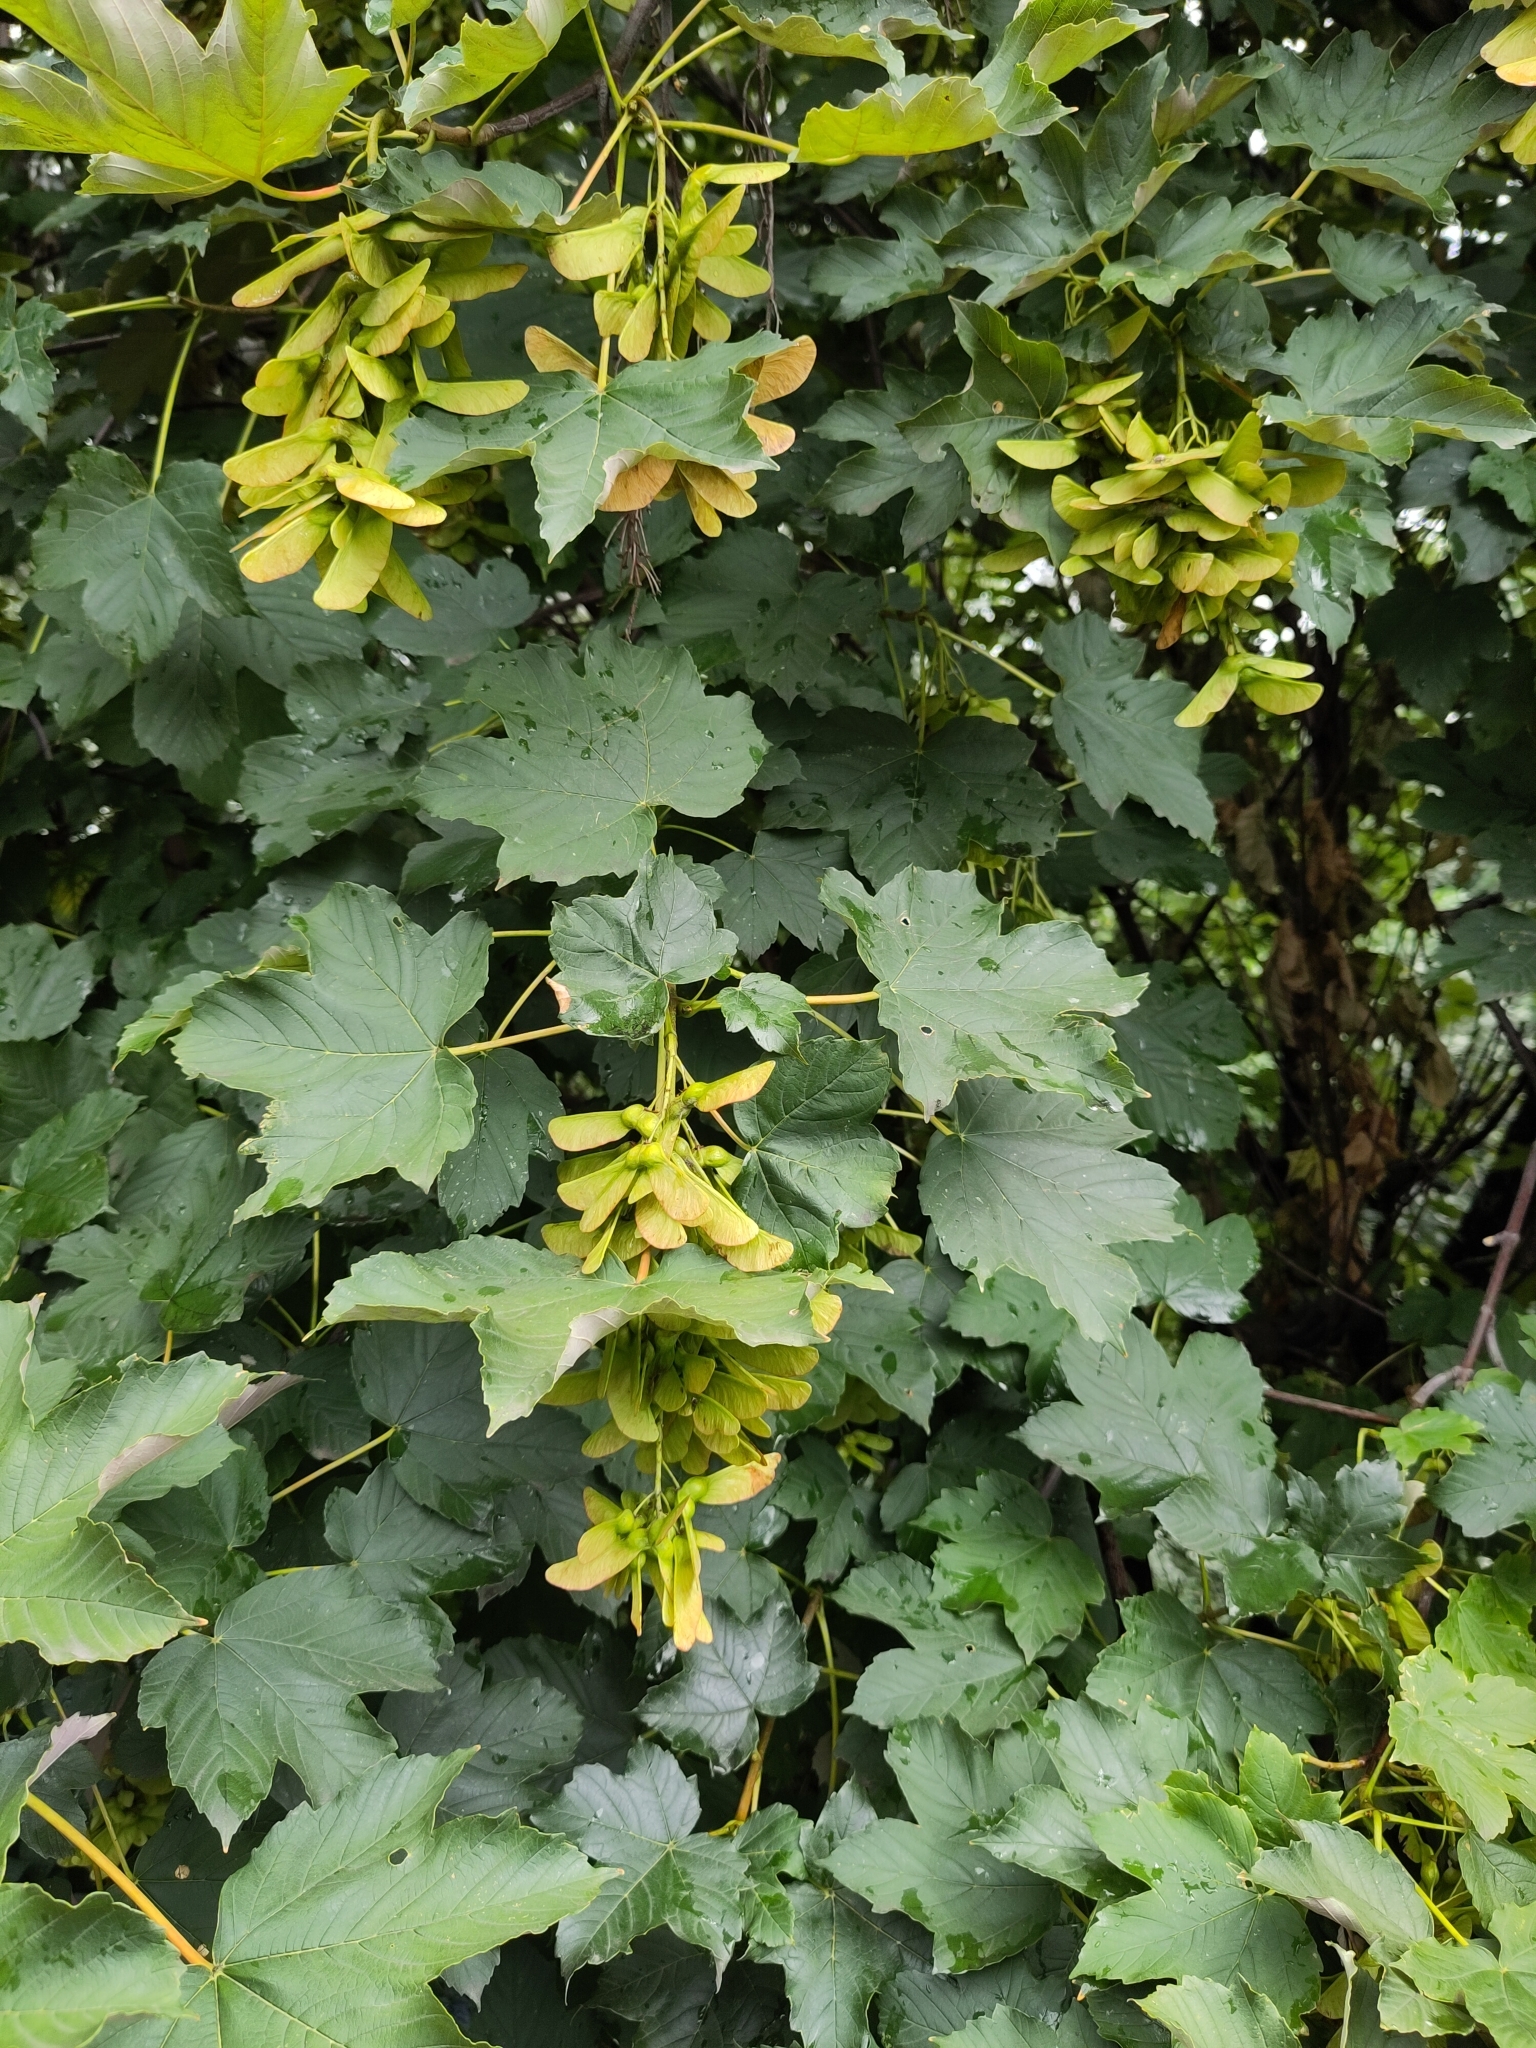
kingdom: Plantae
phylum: Tracheophyta
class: Magnoliopsida
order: Sapindales
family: Sapindaceae
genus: Acer
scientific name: Acer pseudoplatanus
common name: Sycamore
